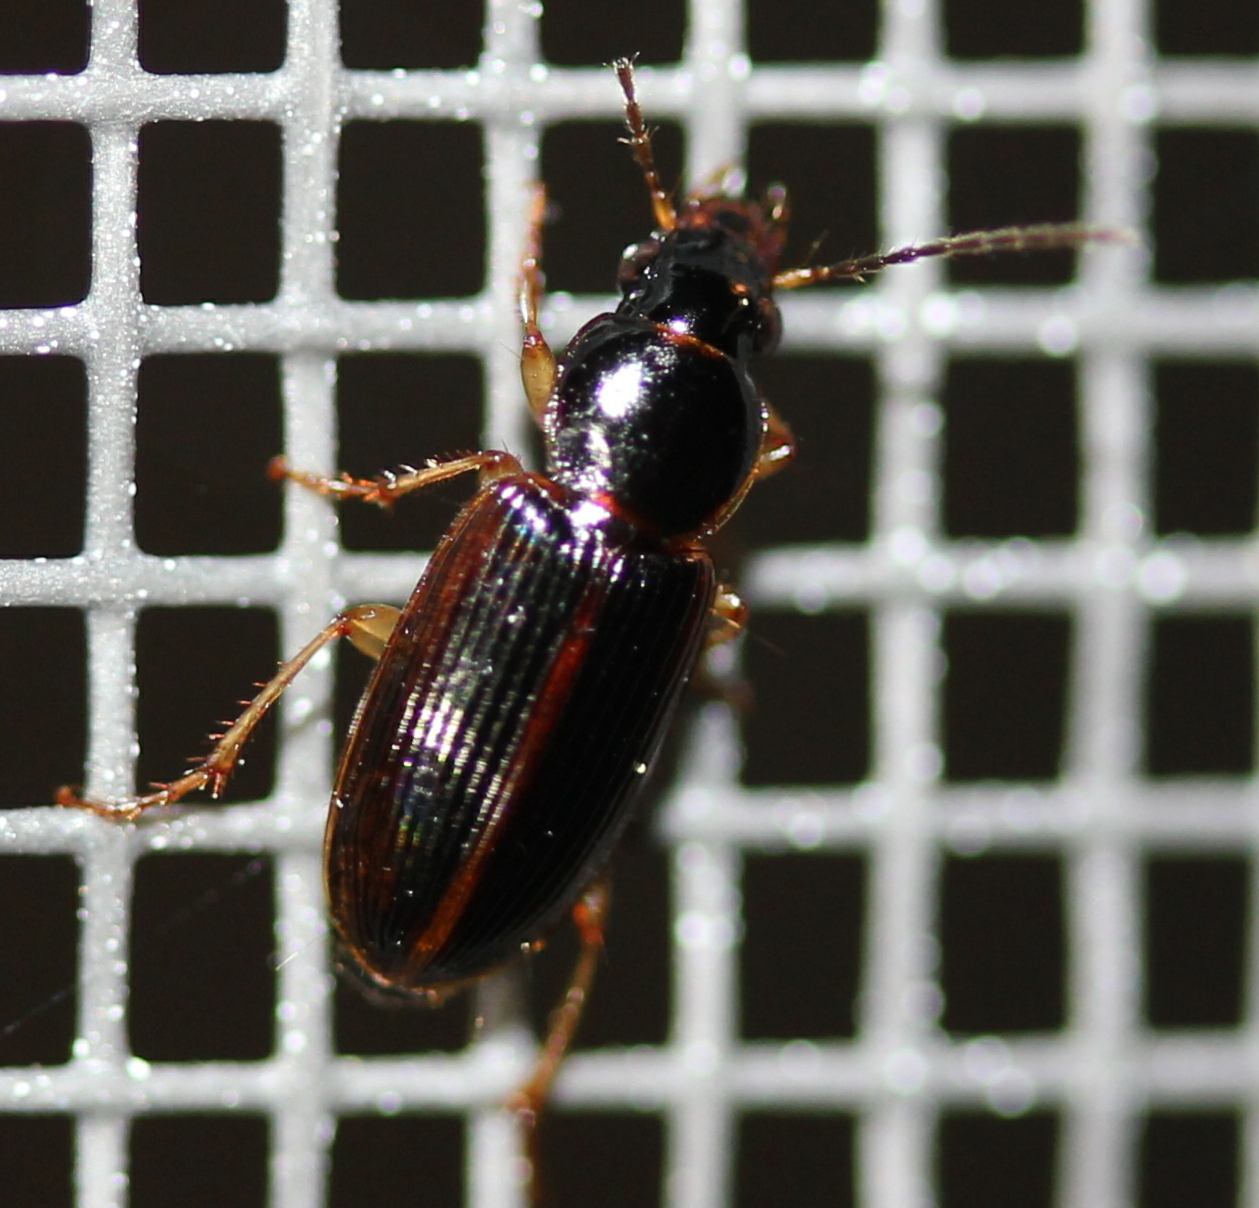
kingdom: Animalia
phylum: Arthropoda
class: Insecta
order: Coleoptera
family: Carabidae
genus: Stenolophus
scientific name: Stenolophus ochropezus
